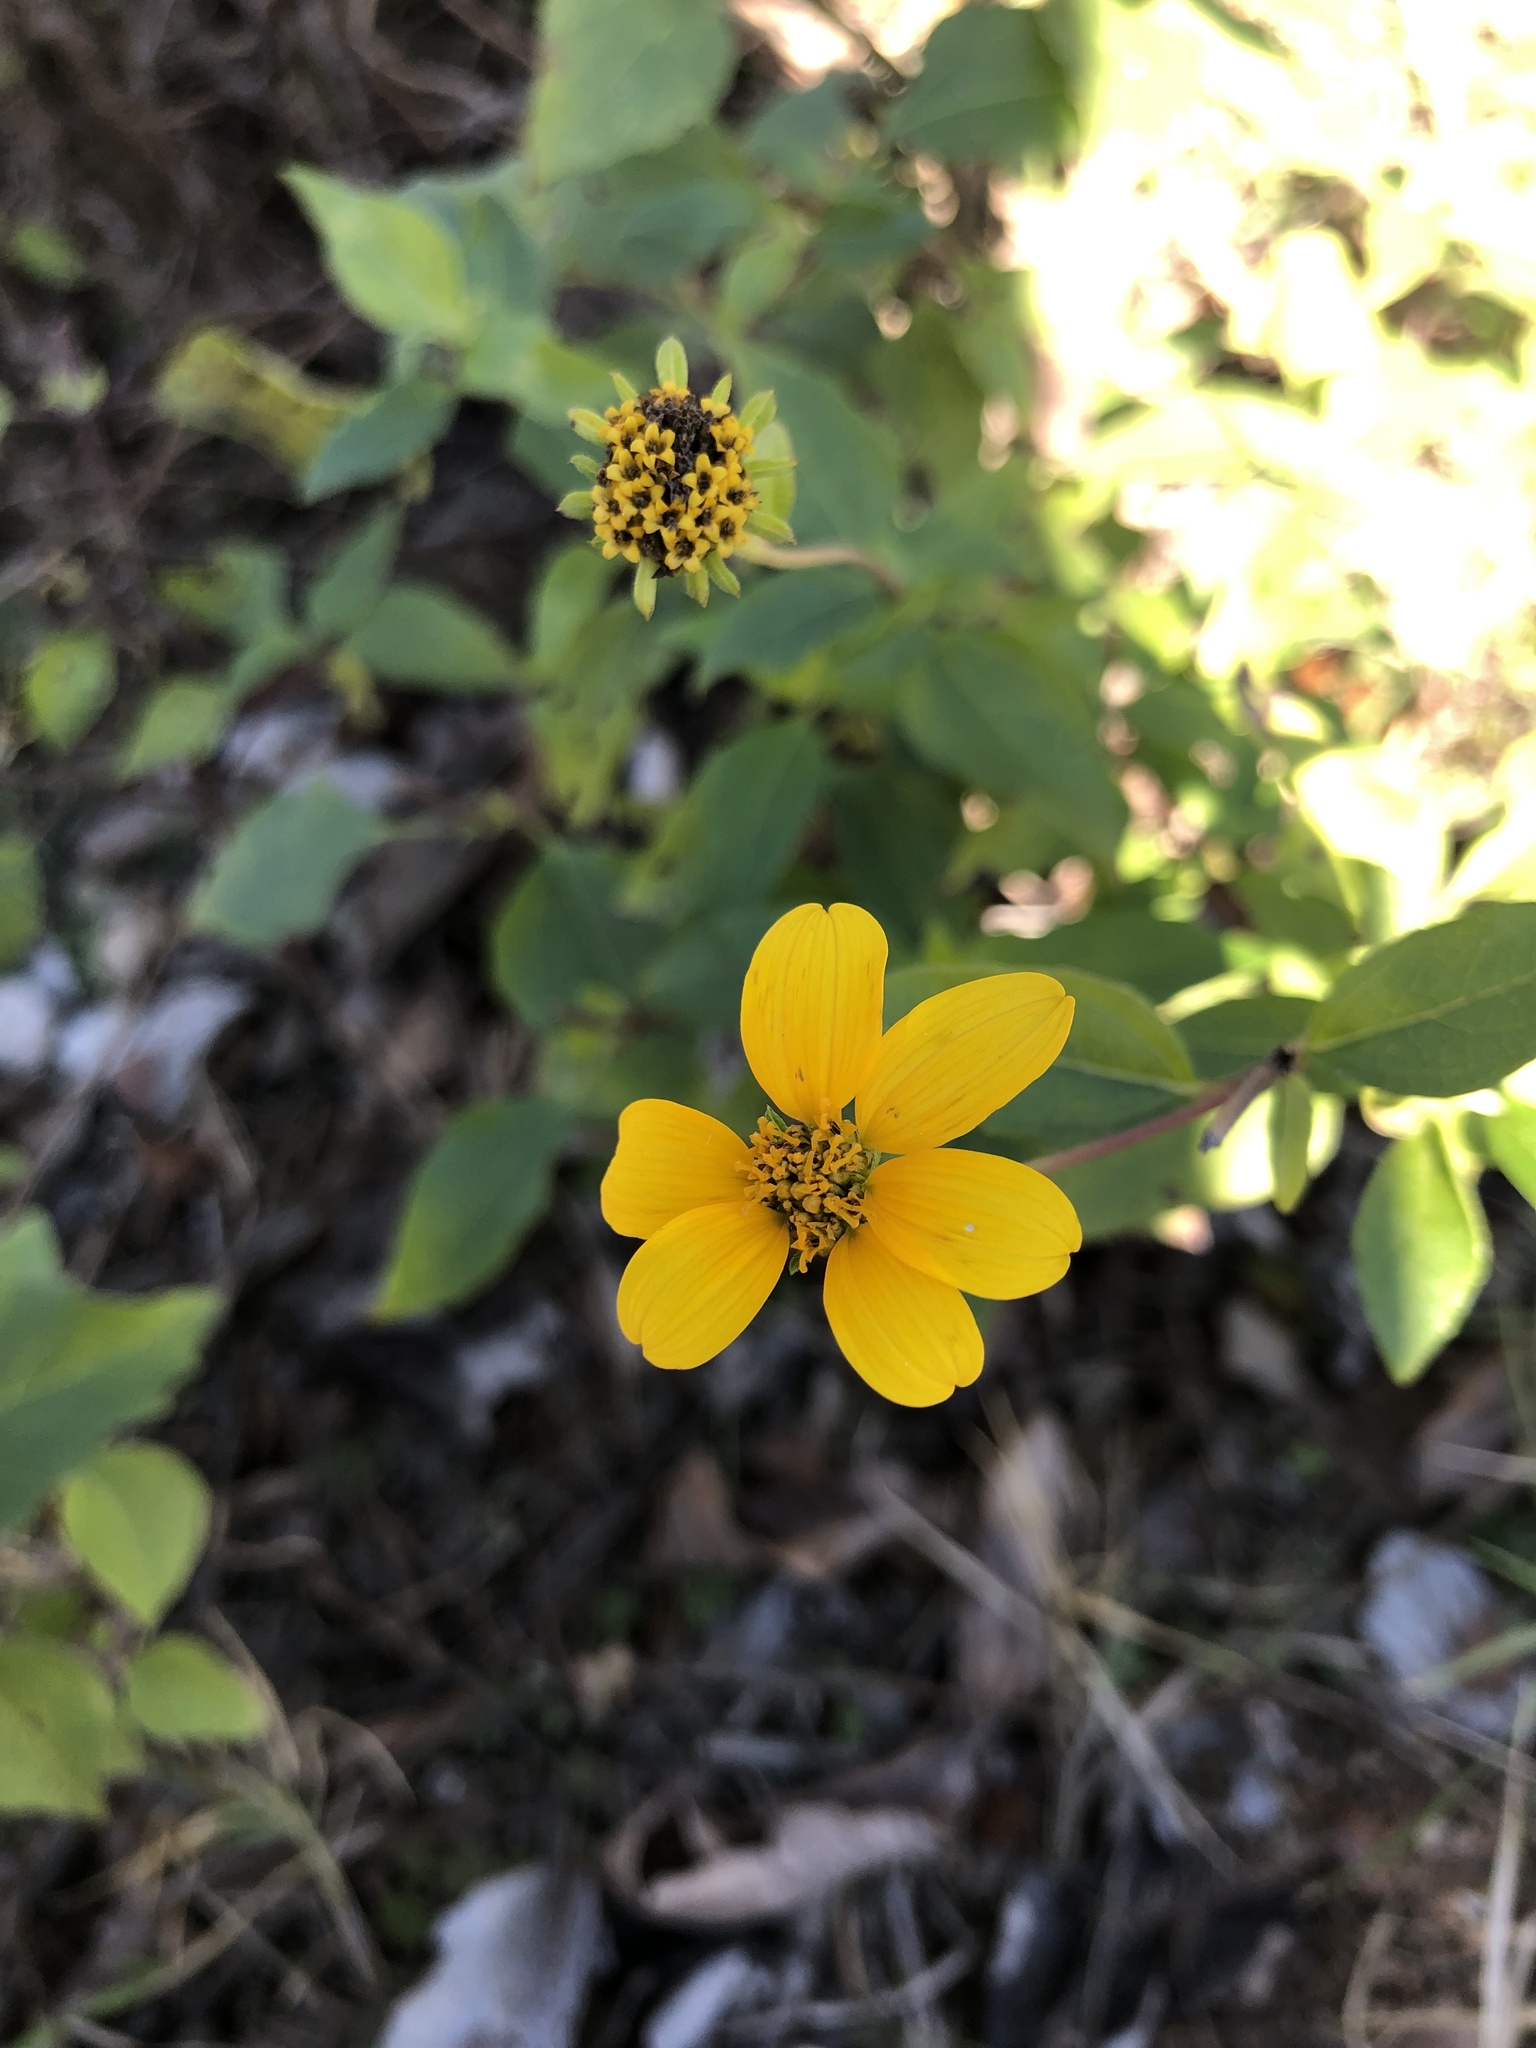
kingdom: Plantae
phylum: Tracheophyta
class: Magnoliopsida
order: Asterales
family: Asteraceae
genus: Viguiera
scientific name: Viguiera dentata
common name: Toothleaf
